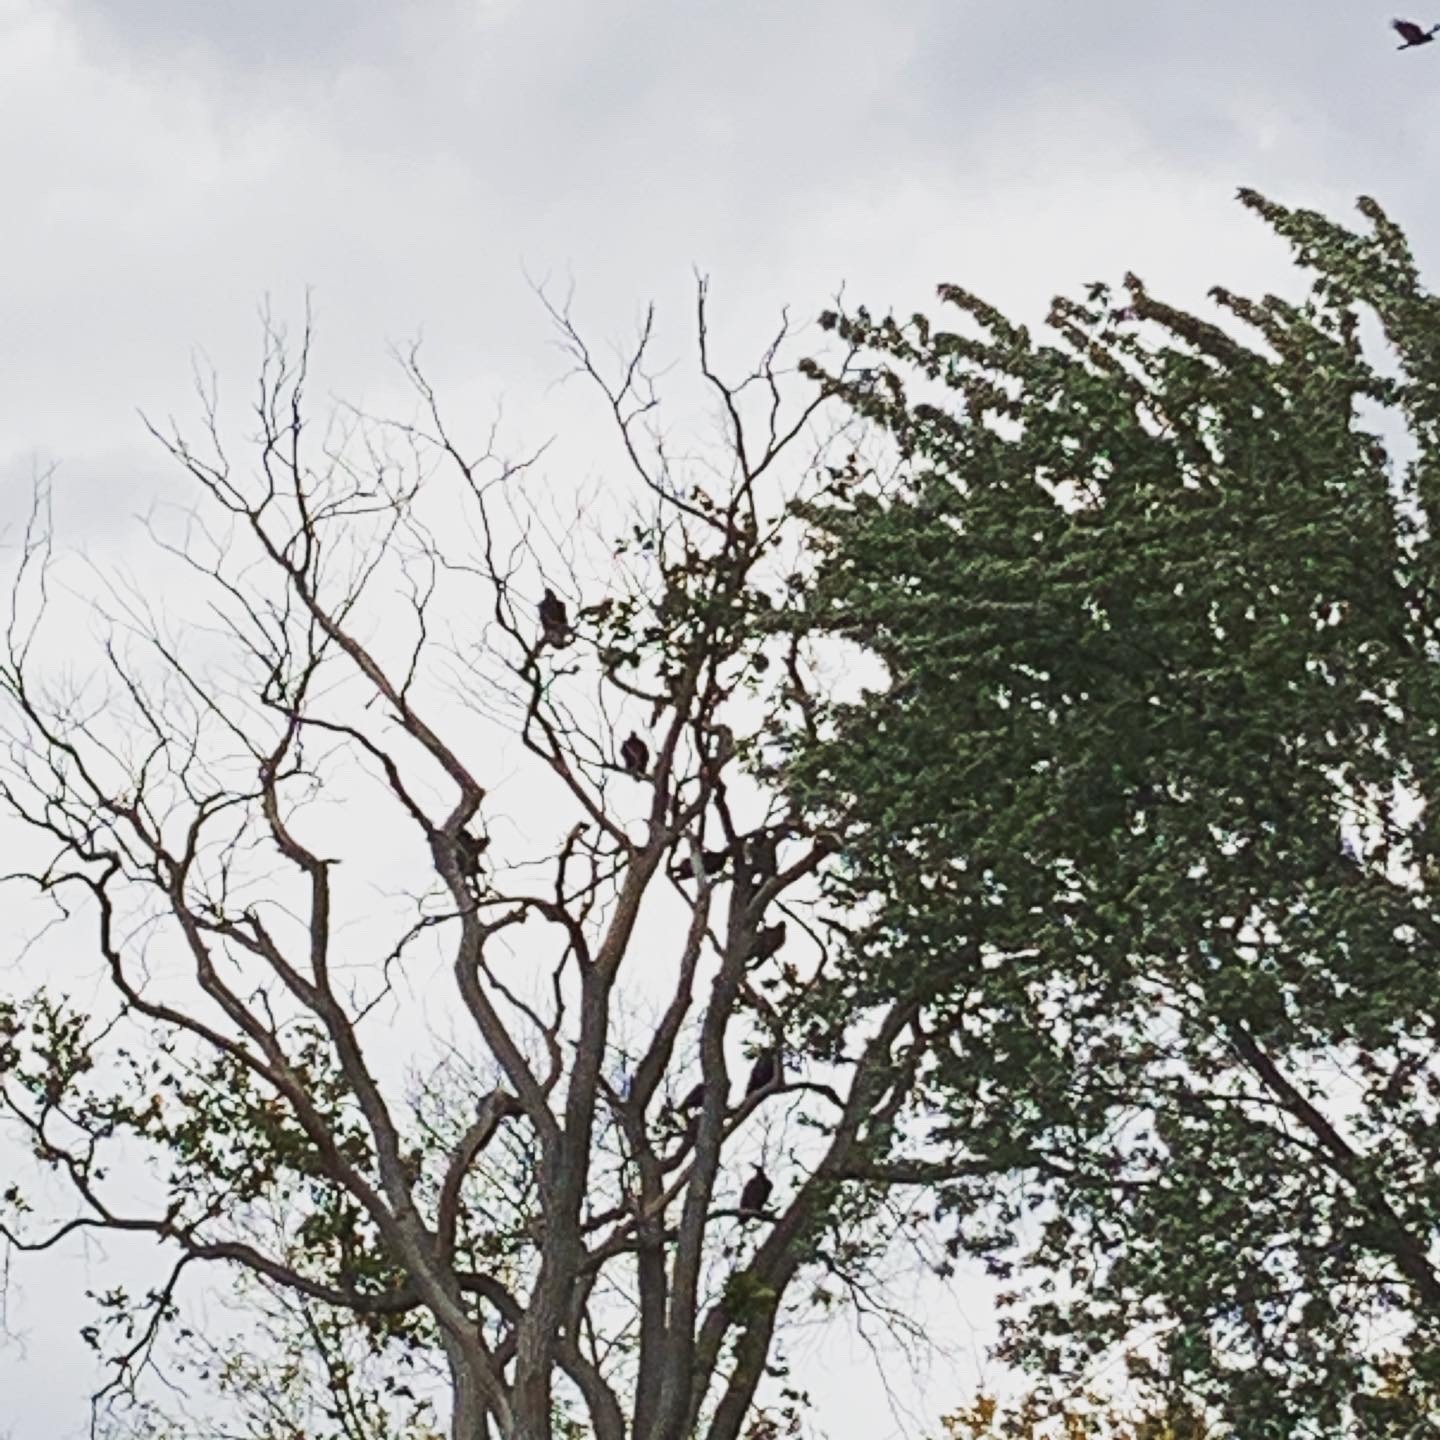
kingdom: Animalia
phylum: Chordata
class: Aves
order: Accipitriformes
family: Cathartidae
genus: Cathartes
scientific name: Cathartes aura
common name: Turkey vulture
